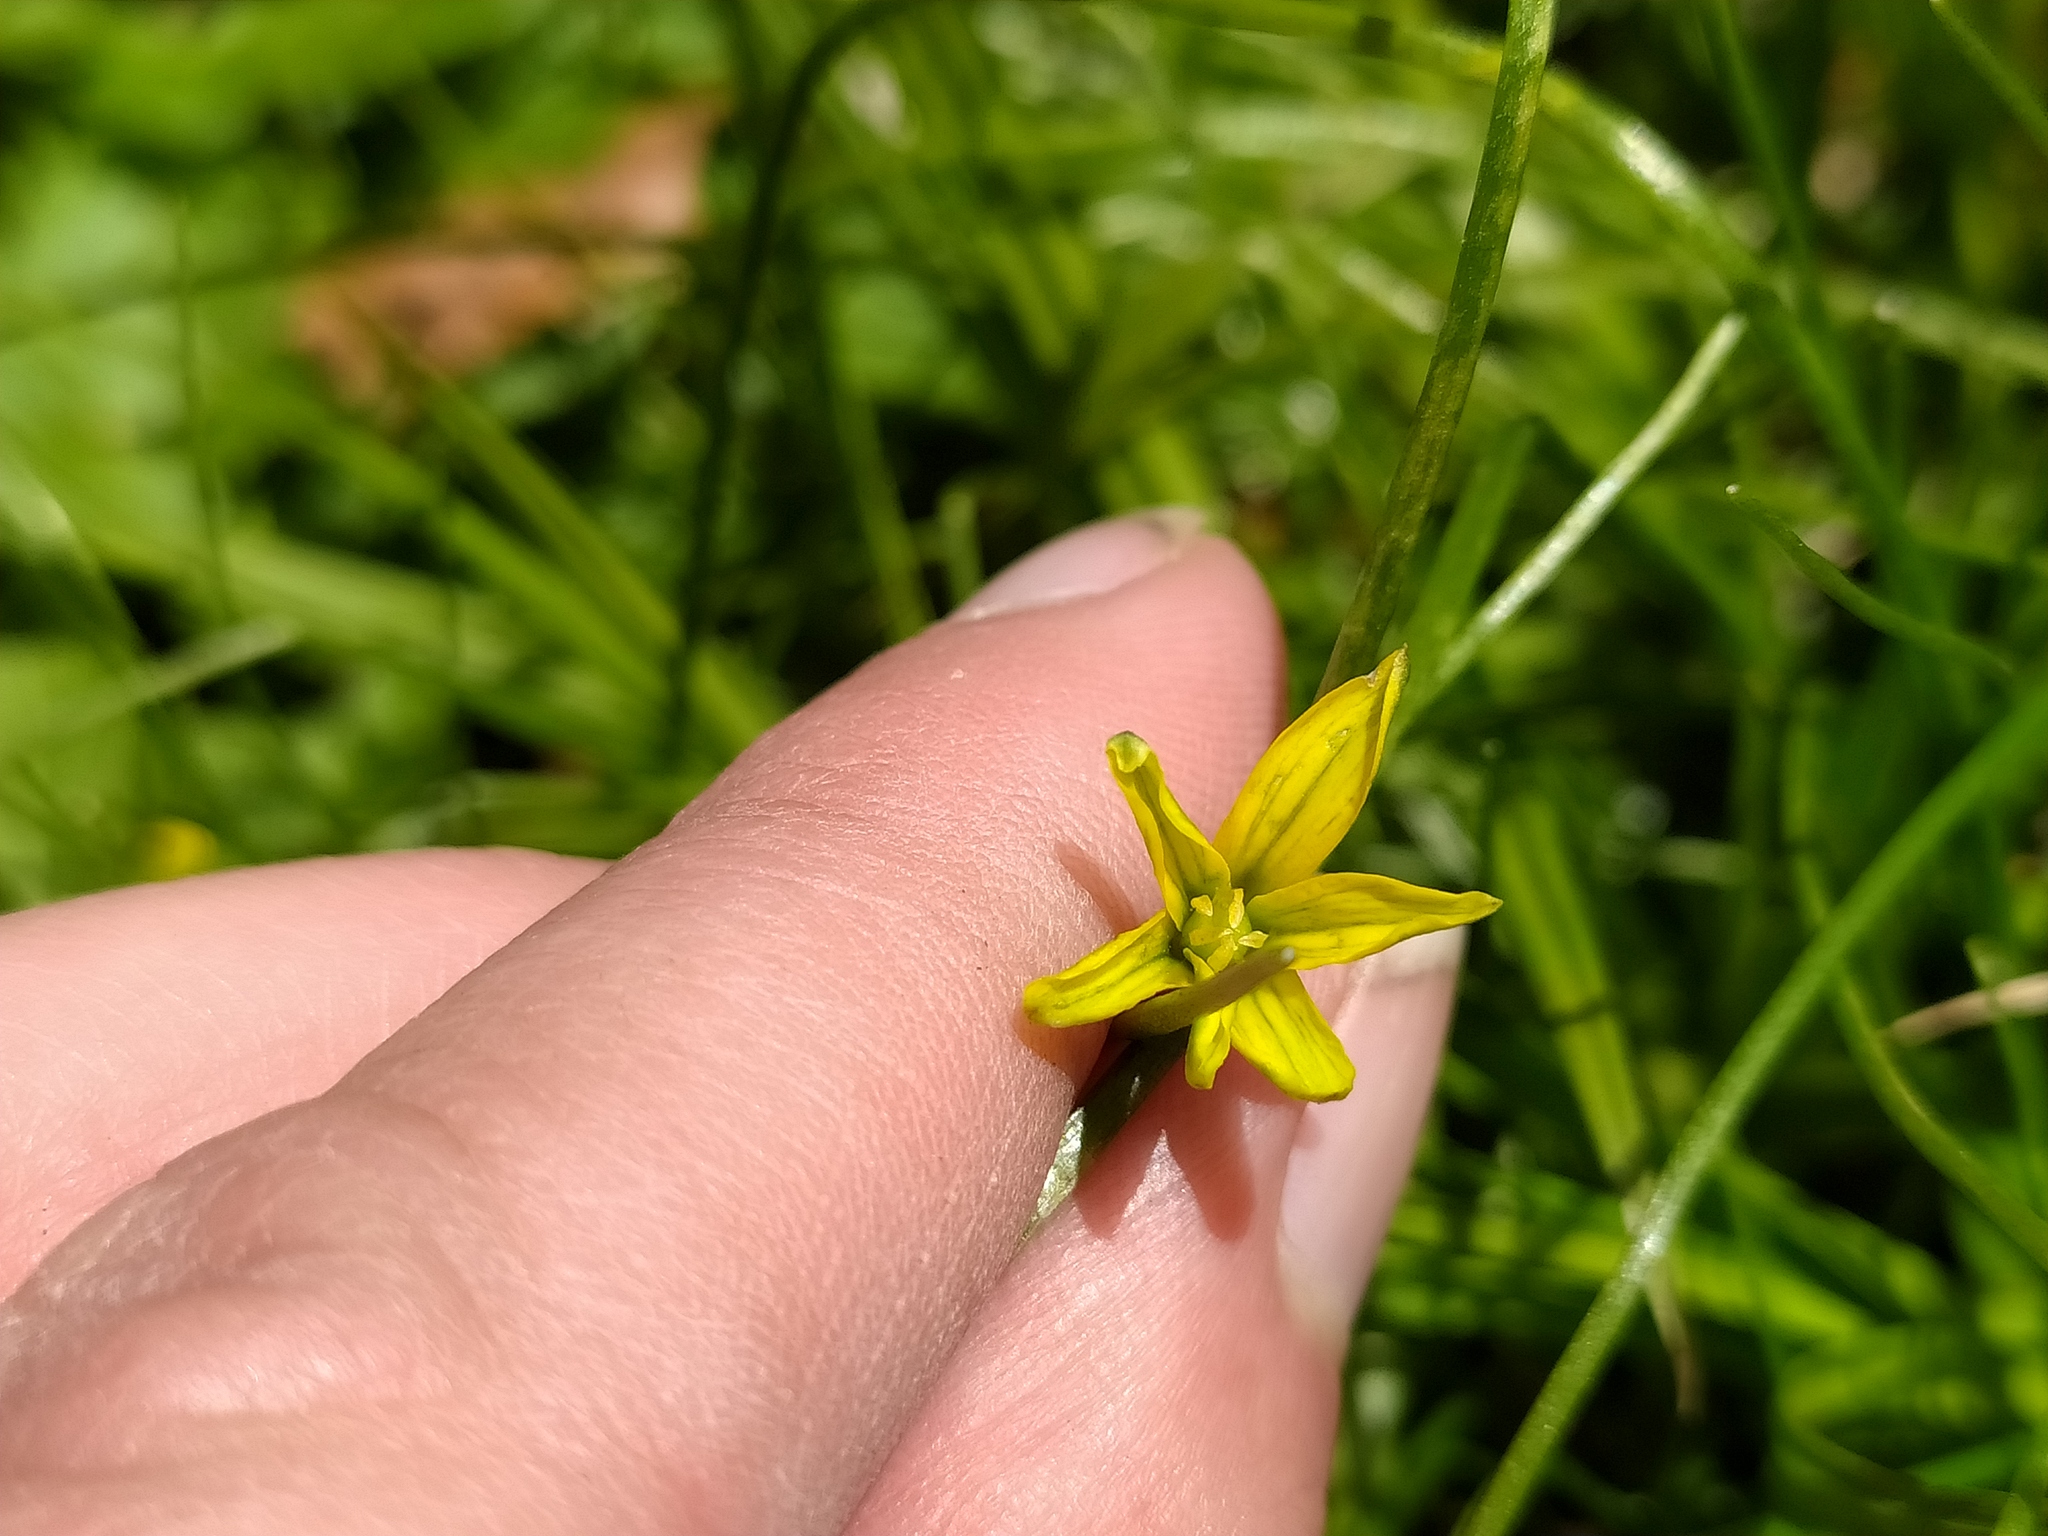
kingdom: Plantae
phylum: Tracheophyta
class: Liliopsida
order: Liliales
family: Liliaceae
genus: Gagea
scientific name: Gagea spathacea
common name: Belgian gagea
